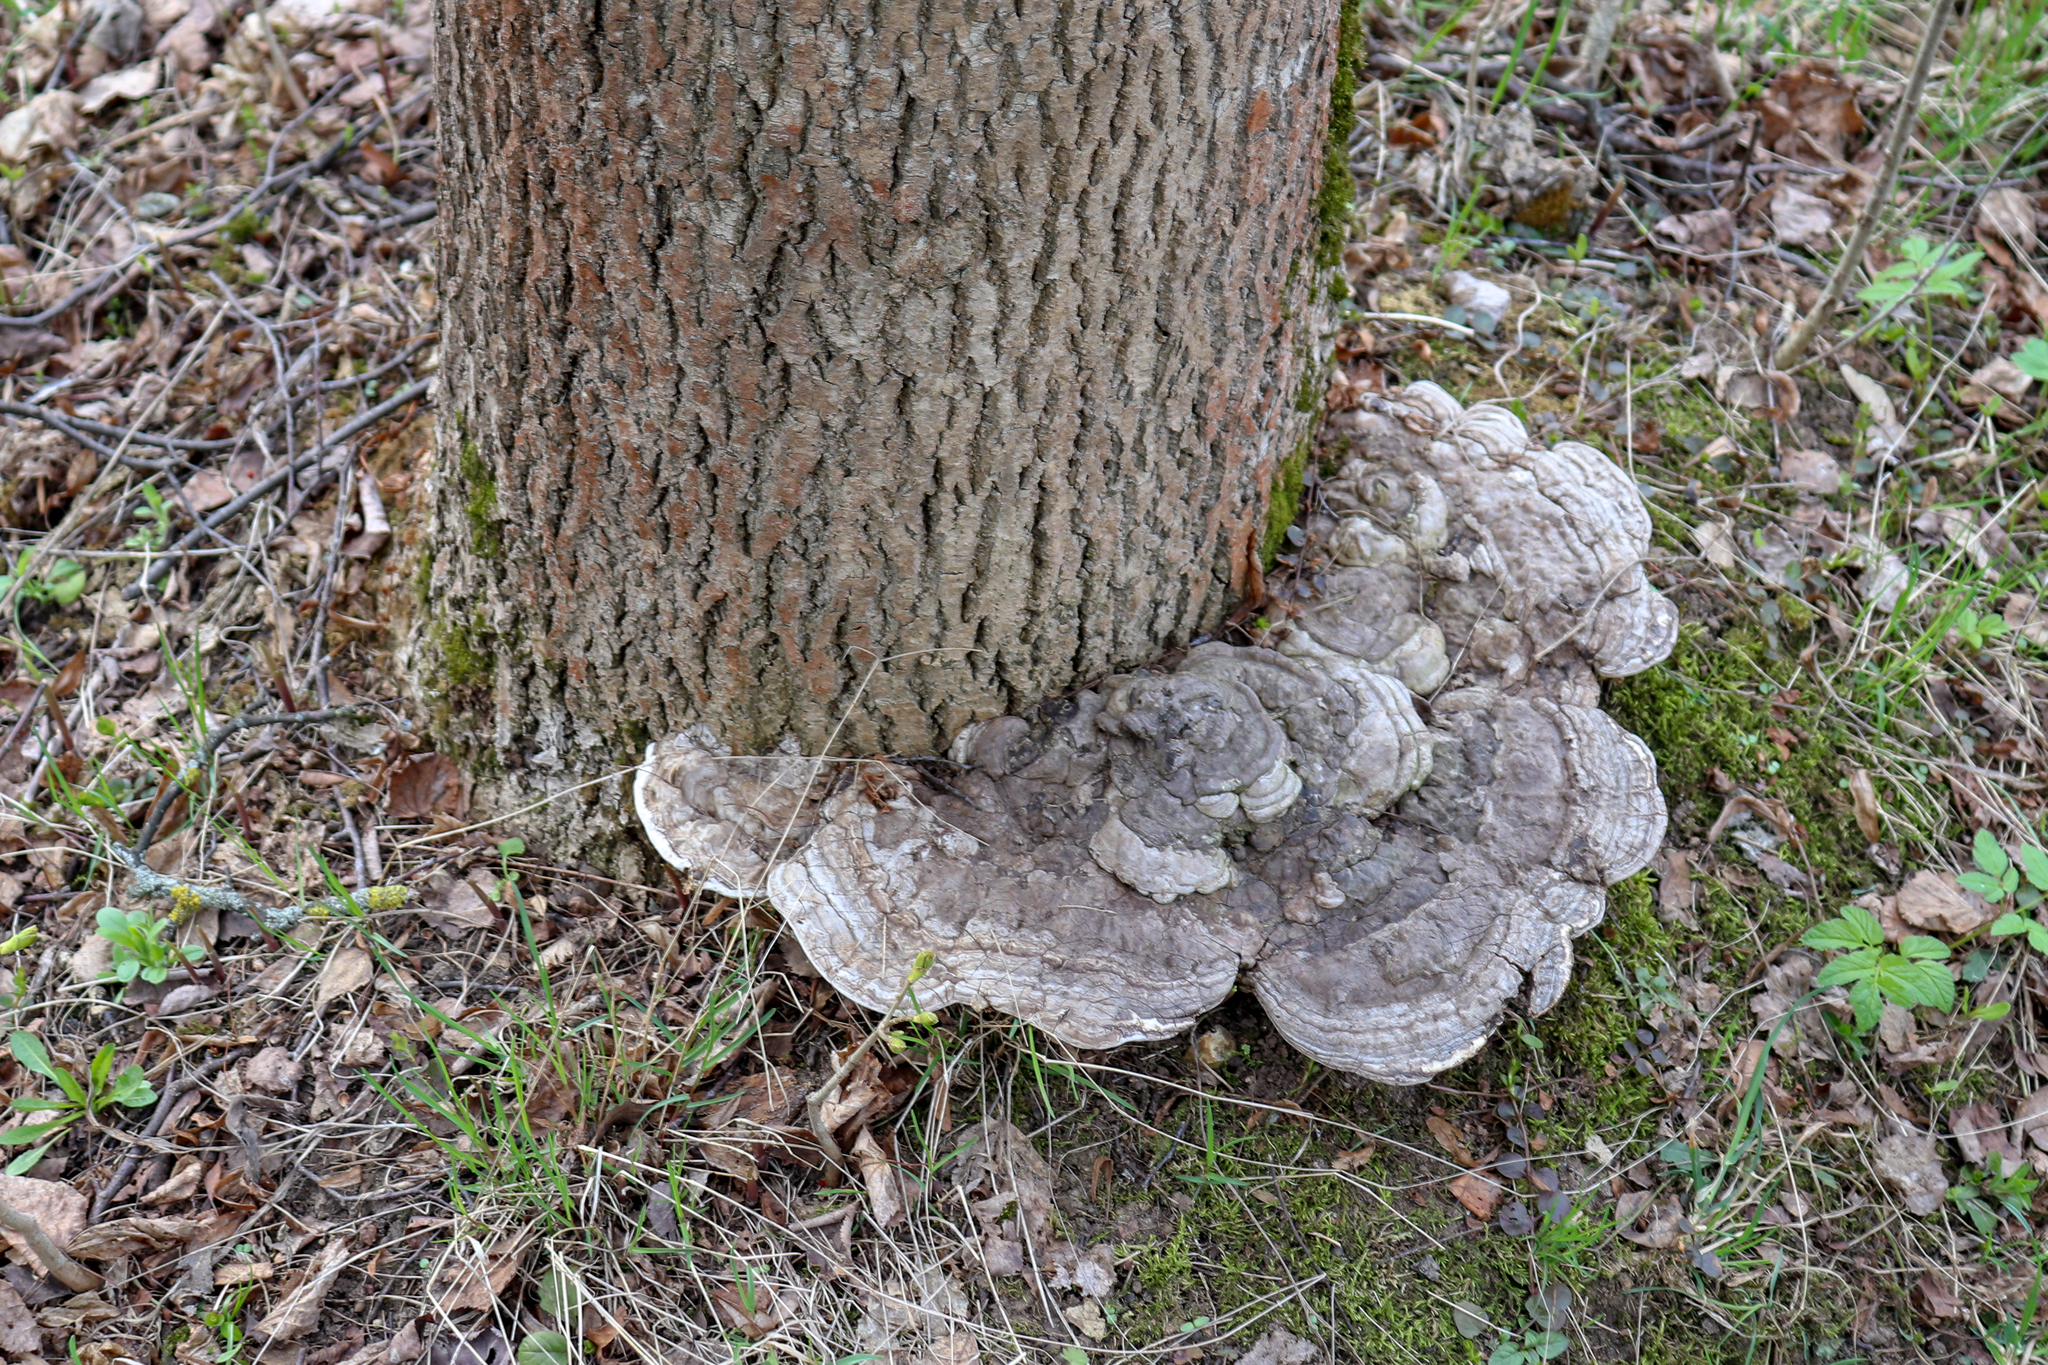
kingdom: Fungi
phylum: Basidiomycota
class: Agaricomycetes
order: Polyporales
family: Polyporaceae
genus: Ganoderma
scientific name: Ganoderma applanatum
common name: Artist's bracket
